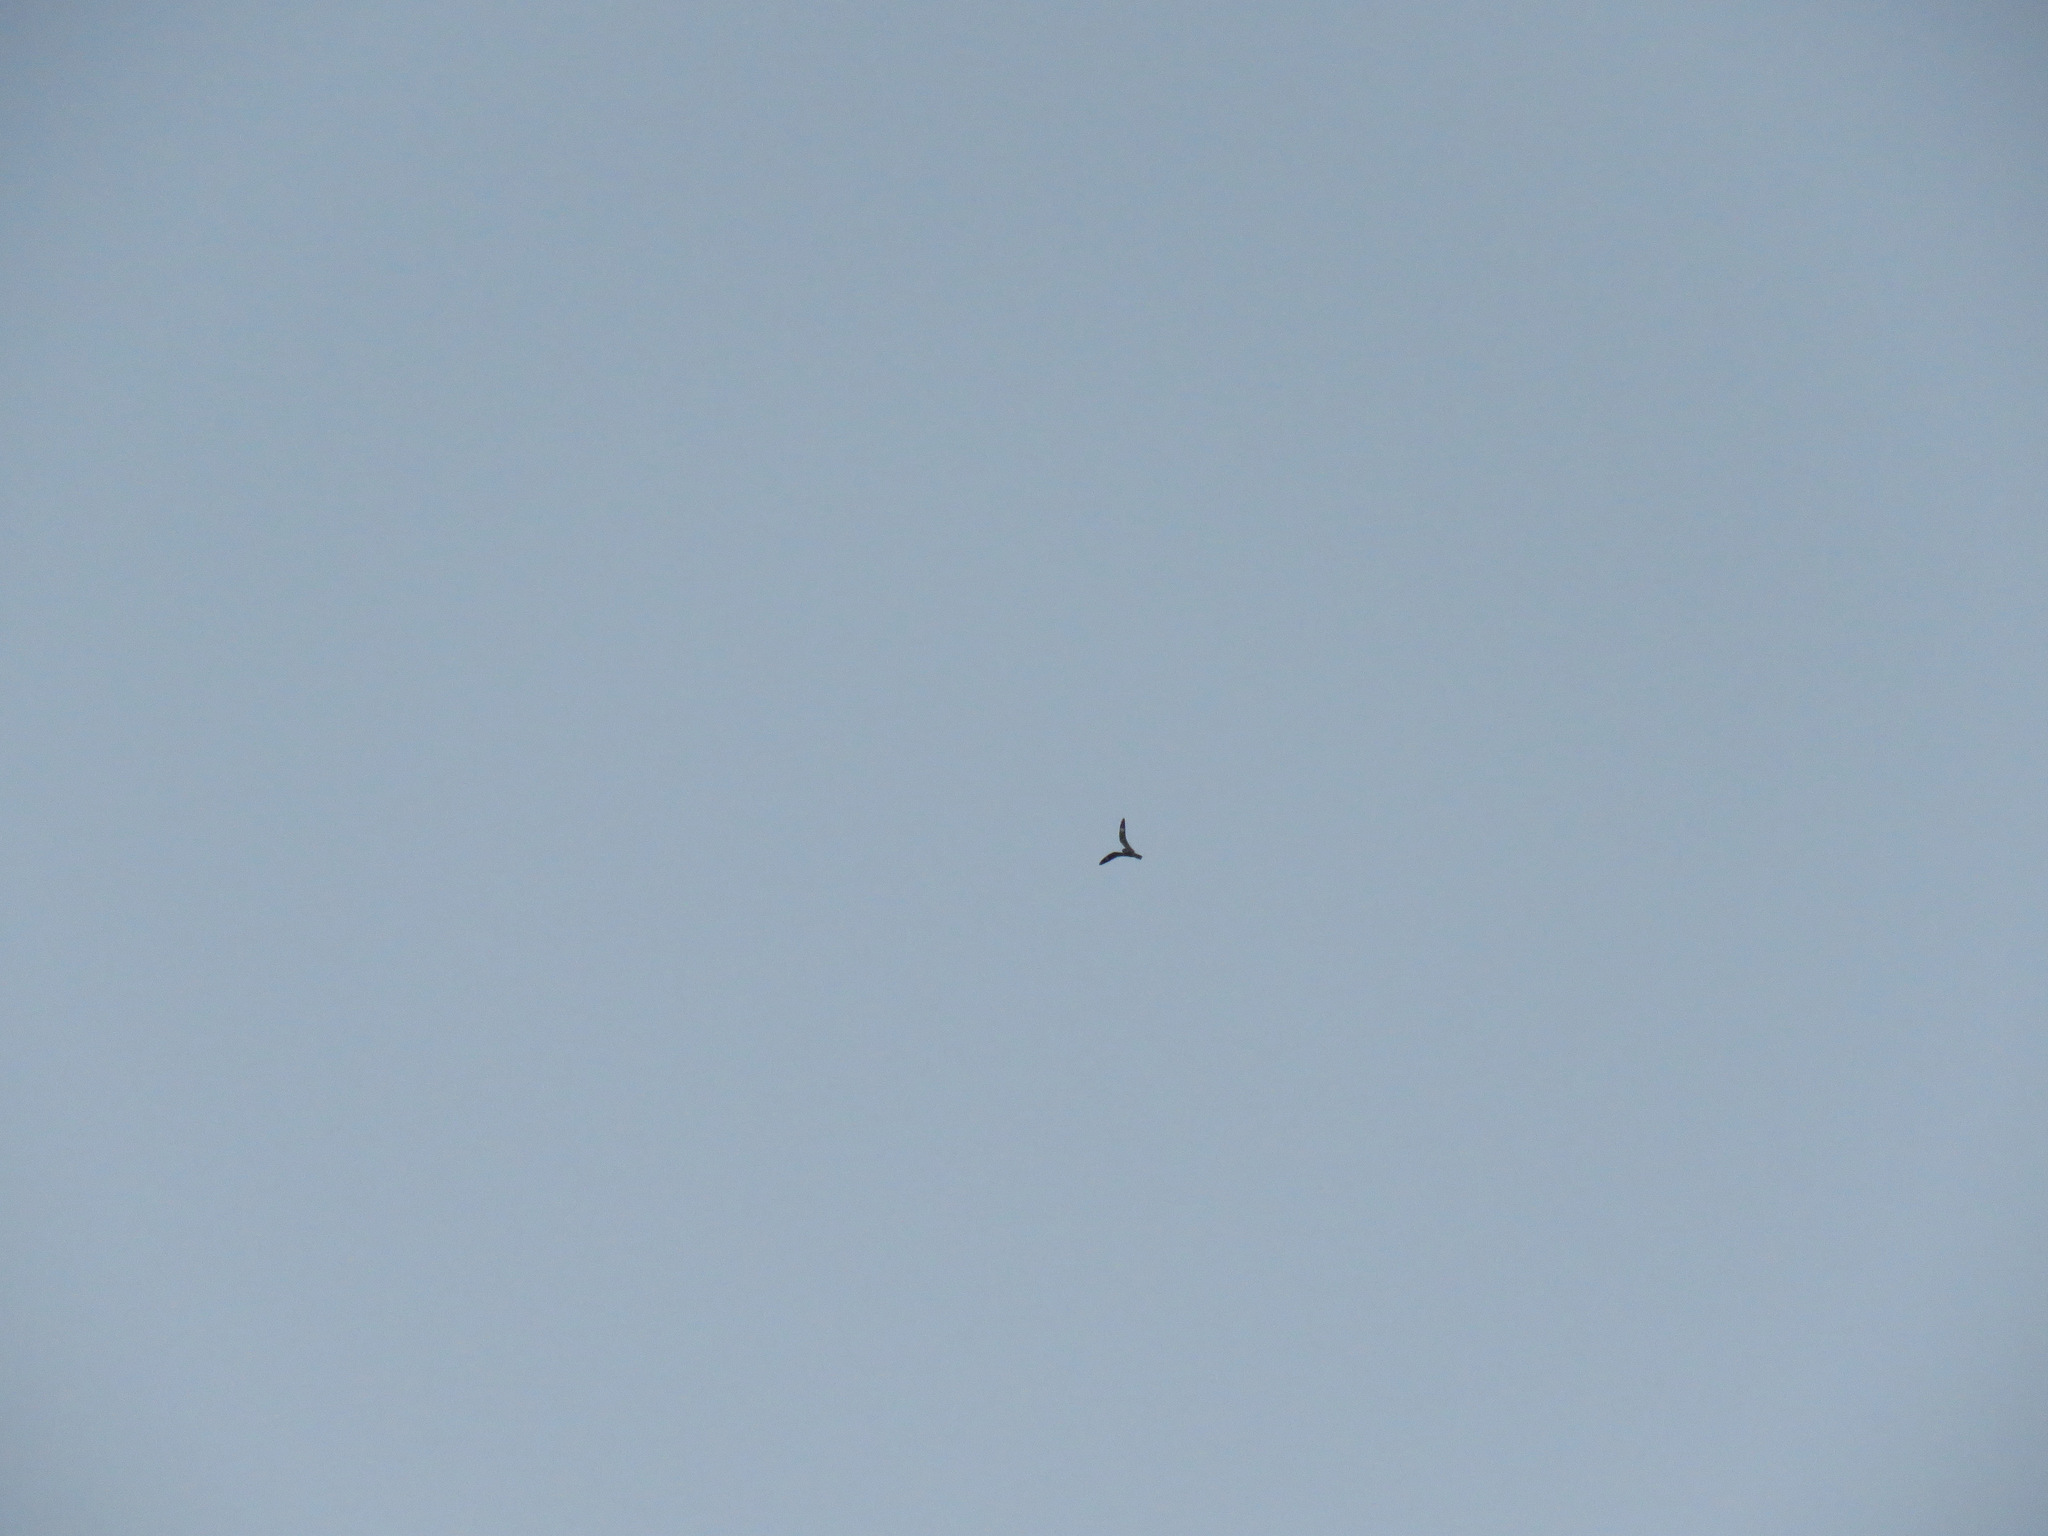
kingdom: Animalia
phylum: Chordata
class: Aves
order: Caprimulgiformes
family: Caprimulgidae
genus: Chordeiles
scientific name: Chordeiles minor
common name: Common nighthawk
